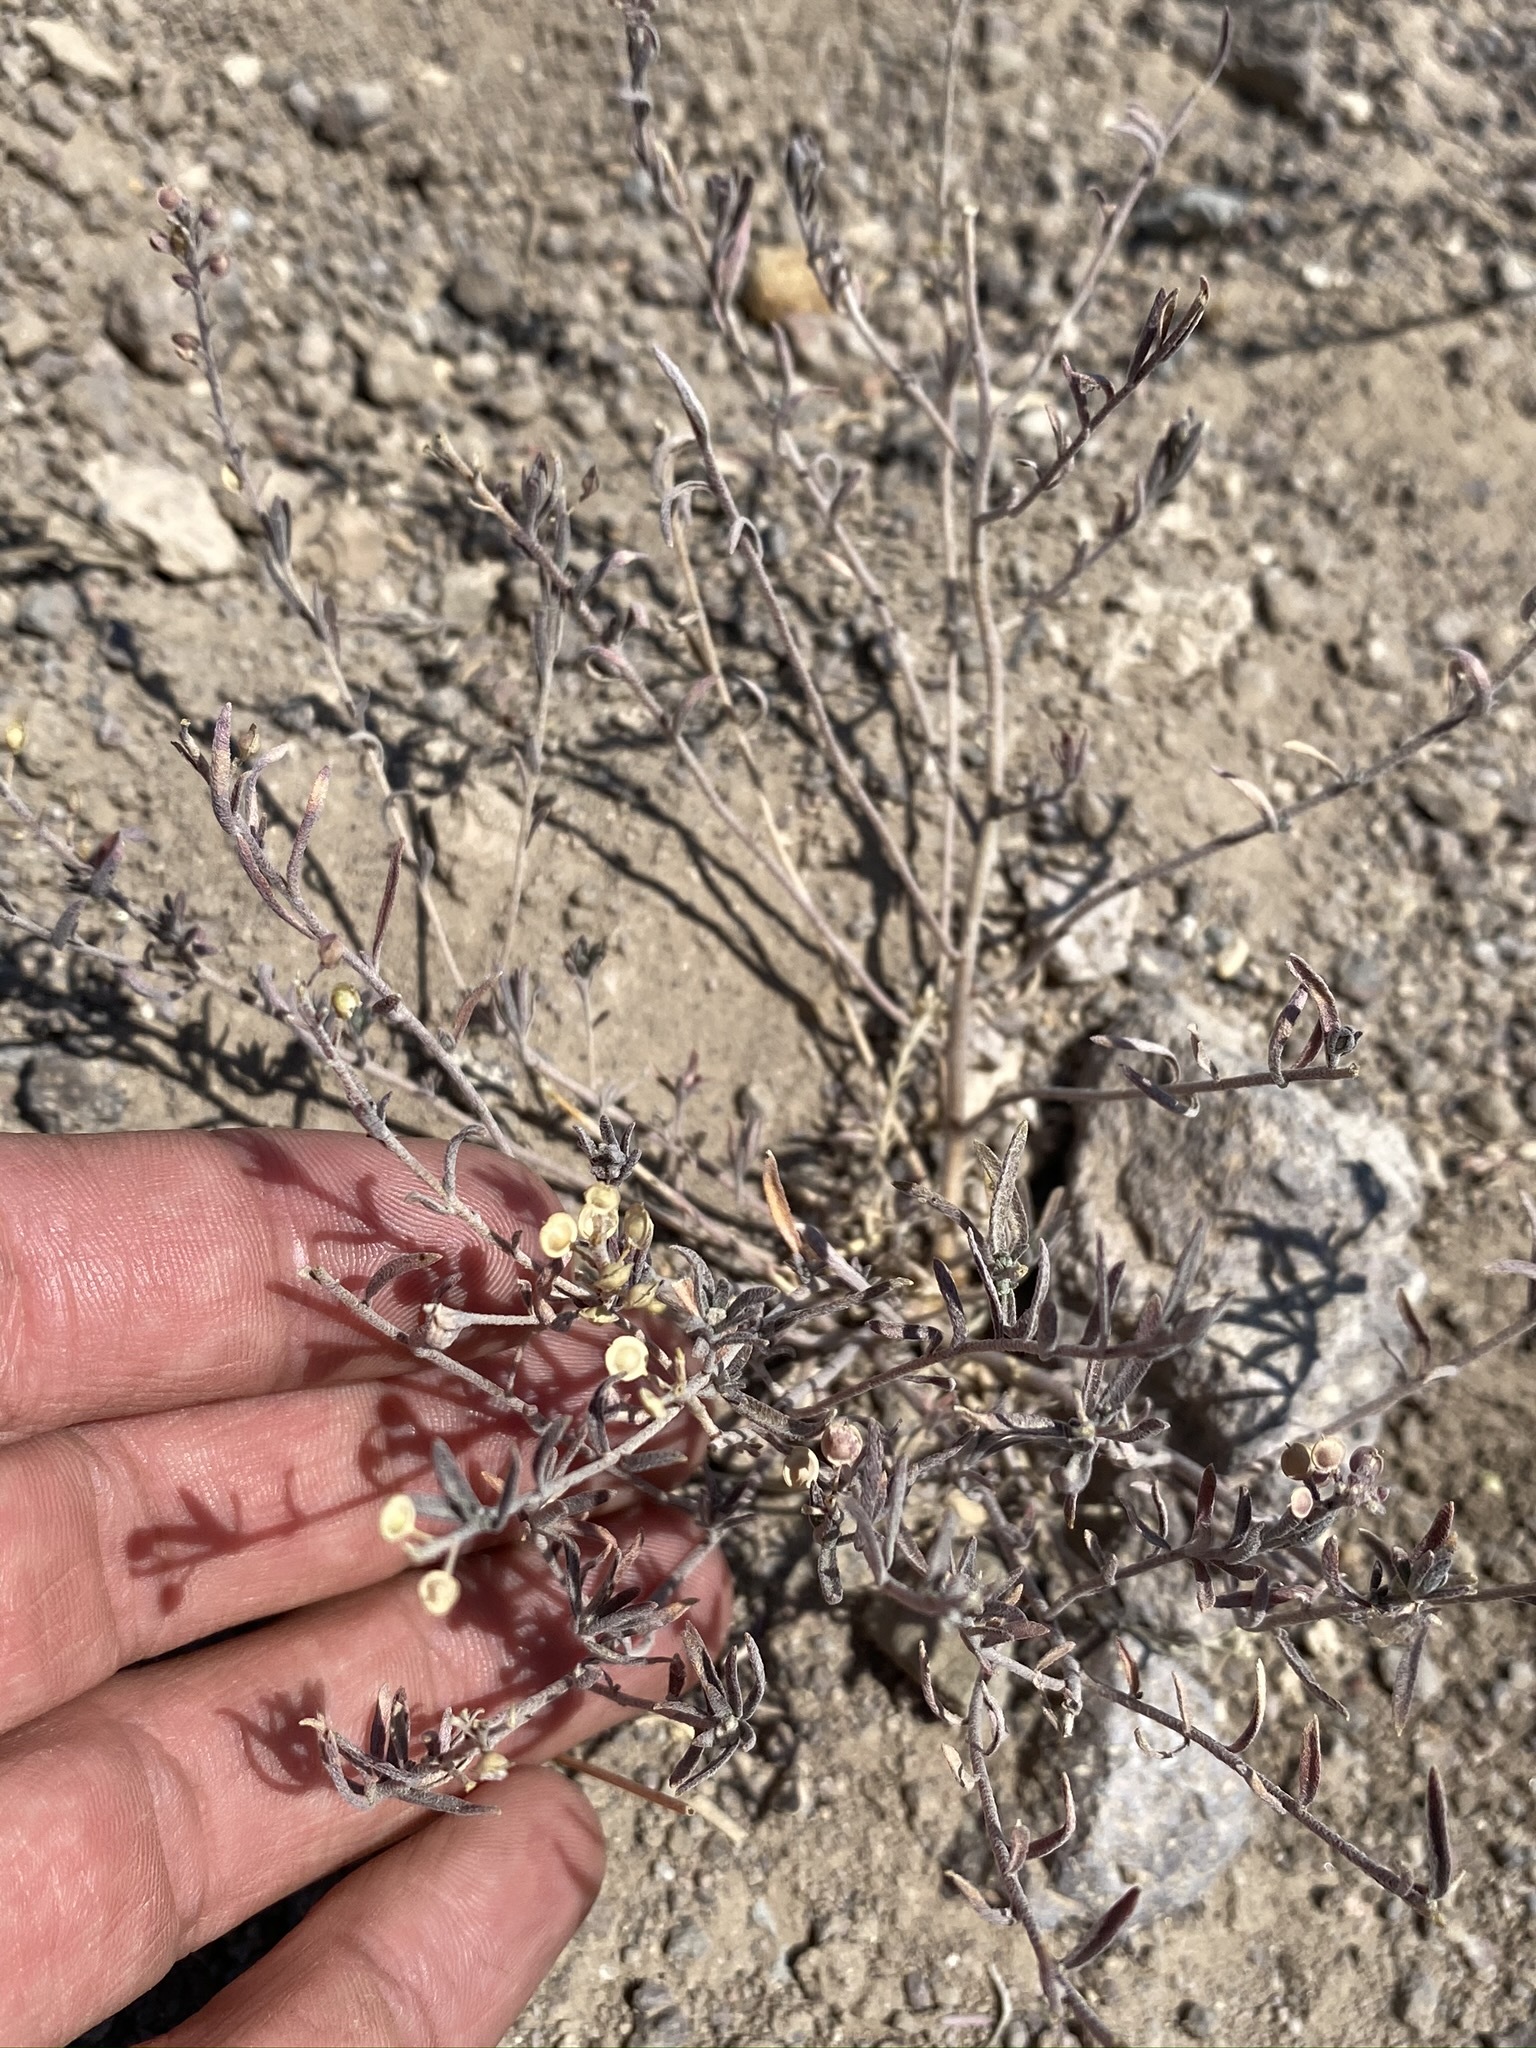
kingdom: Plantae
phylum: Tracheophyta
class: Magnoliopsida
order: Brassicales
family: Brassicaceae
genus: Alyssum
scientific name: Alyssum turkestanicum
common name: Desert alyssum
